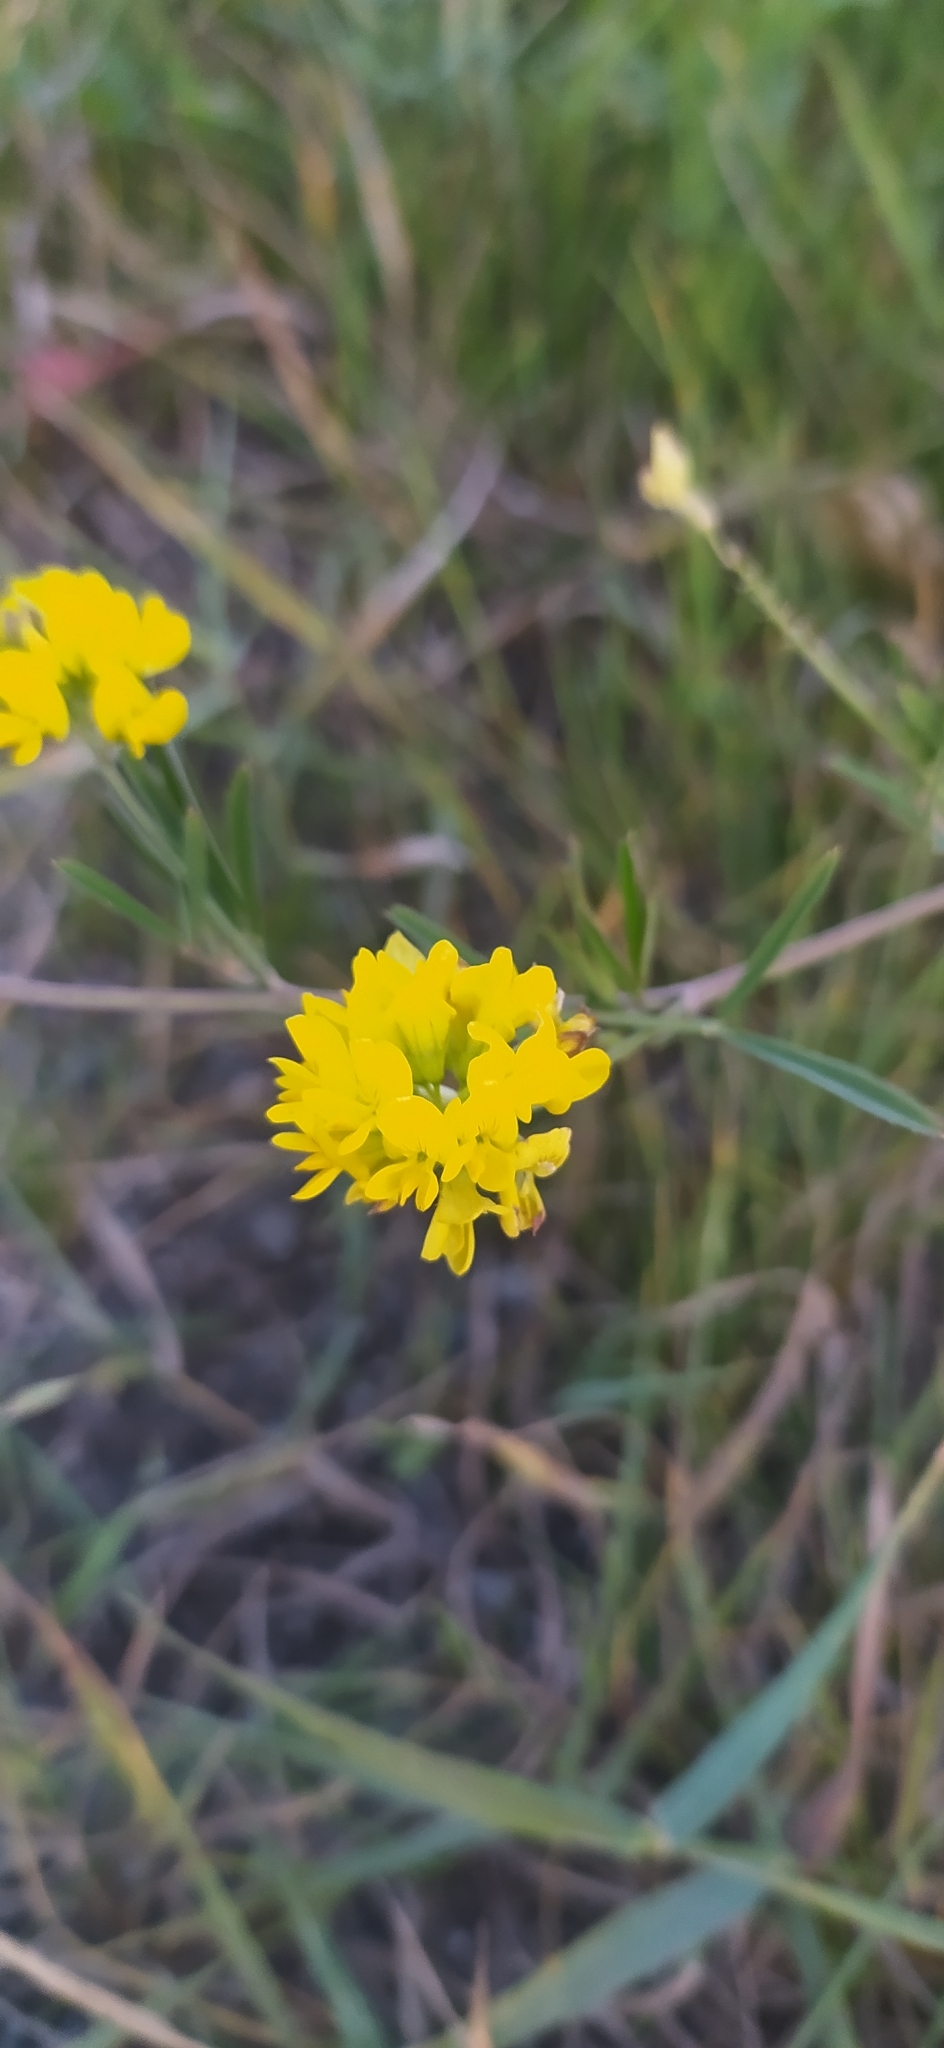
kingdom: Plantae
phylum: Tracheophyta
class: Magnoliopsida
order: Fabales
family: Fabaceae
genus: Medicago
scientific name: Medicago falcata
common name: Sickle medick
